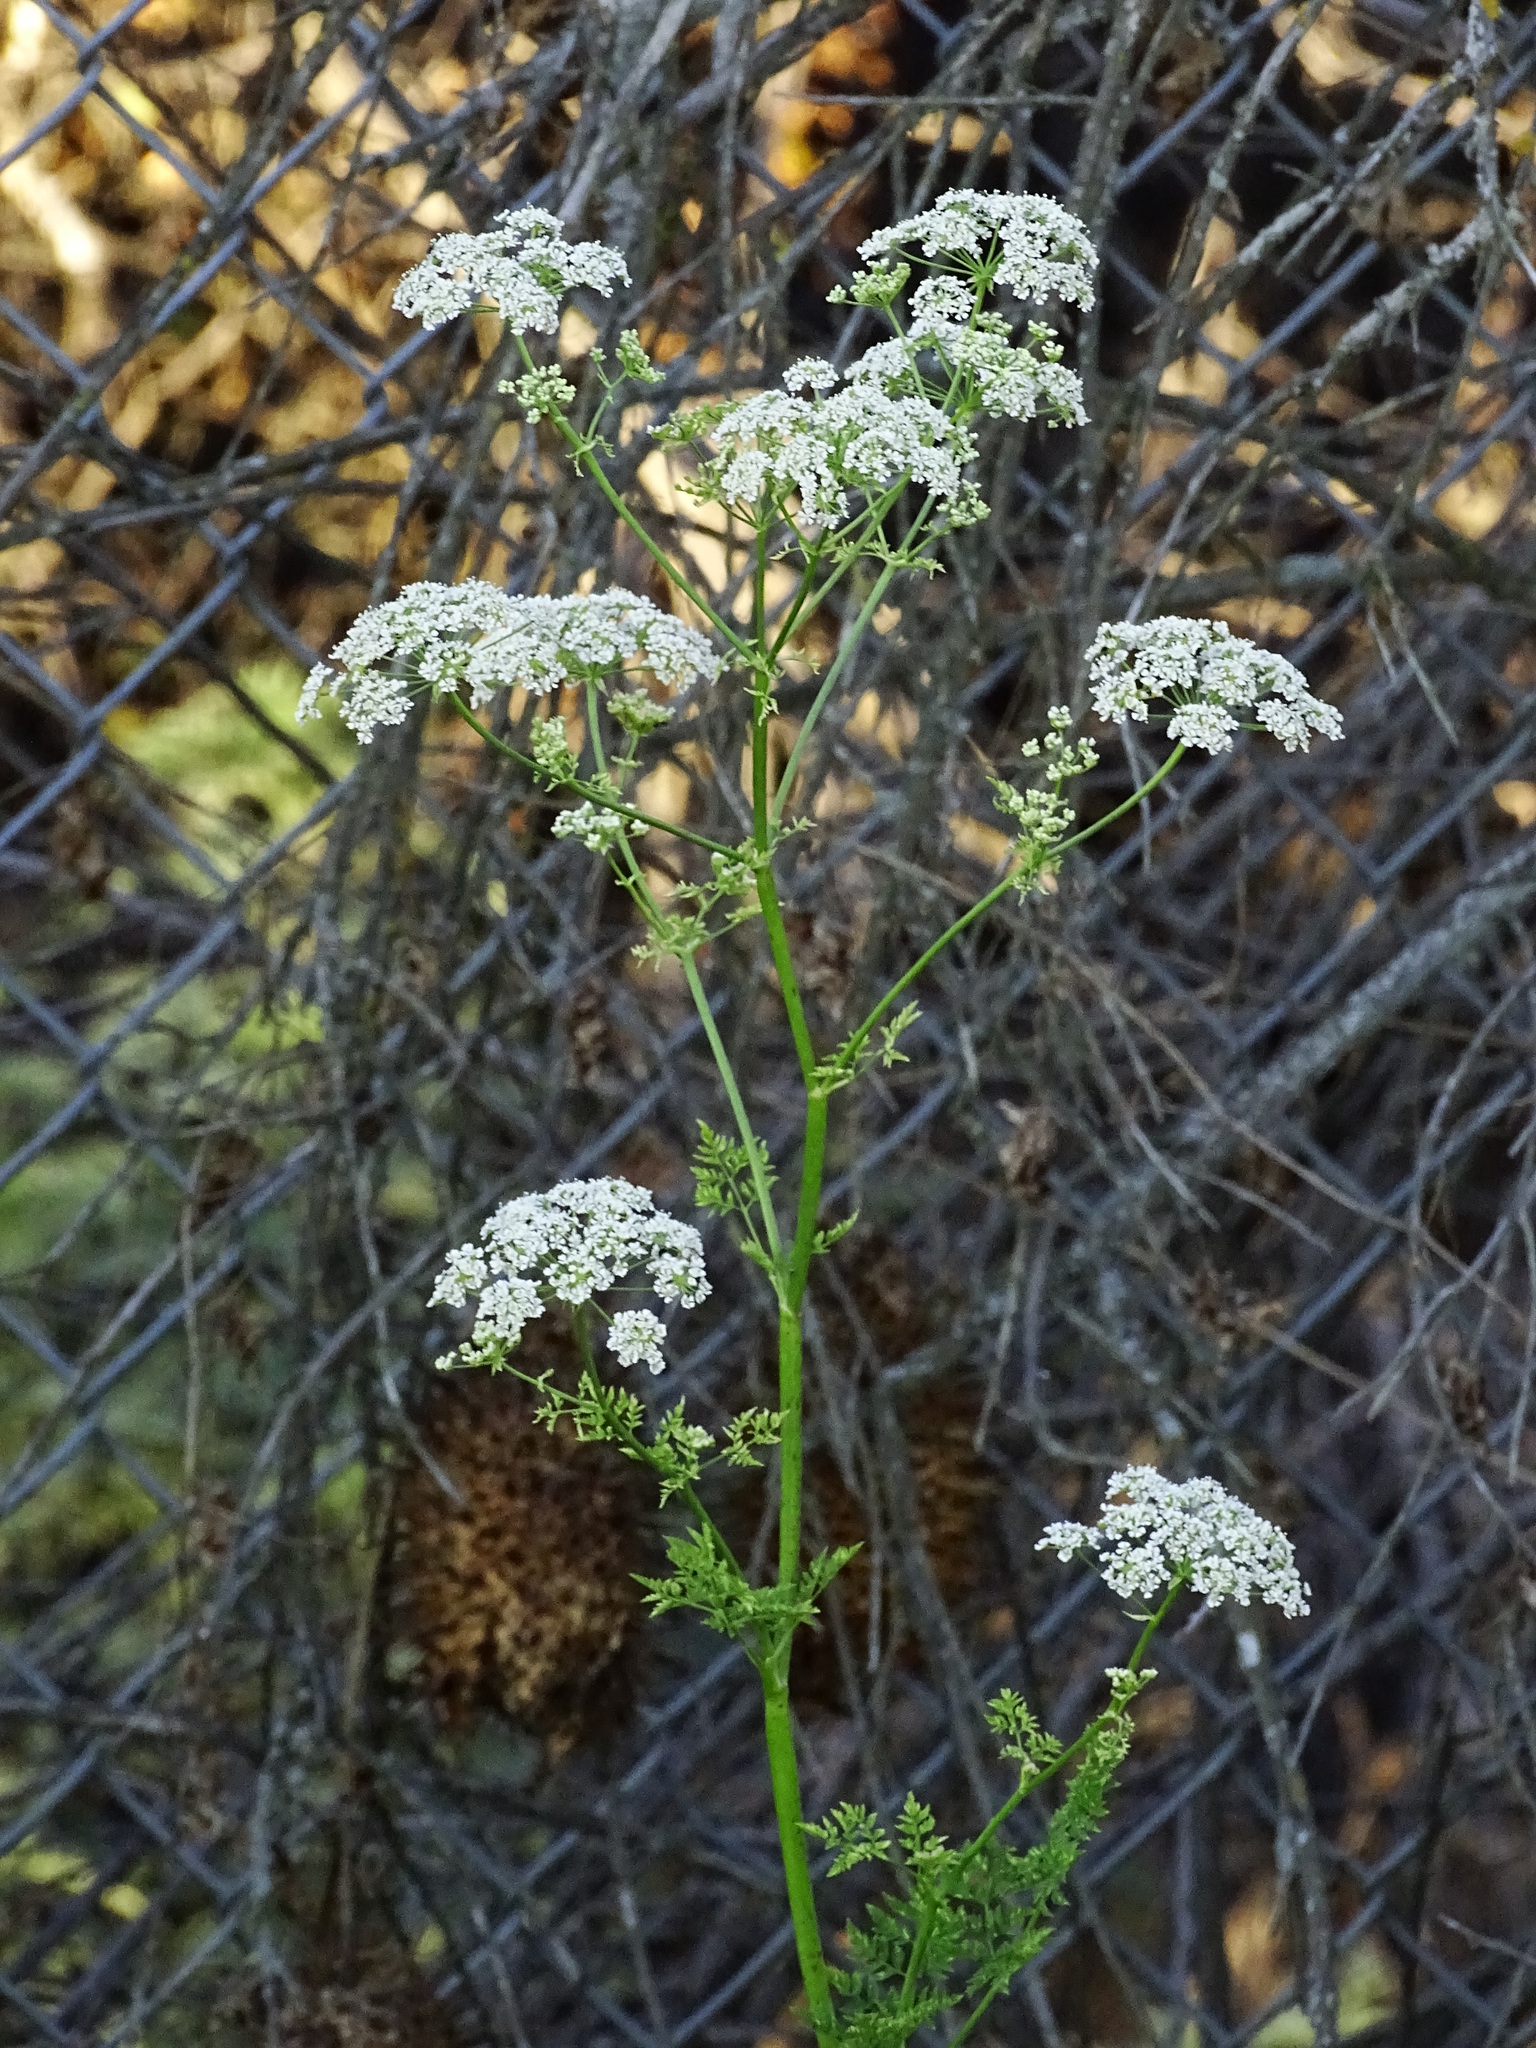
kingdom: Plantae
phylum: Tracheophyta
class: Magnoliopsida
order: Apiales
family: Apiaceae
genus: Conium
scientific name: Conium maculatum
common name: Hemlock
